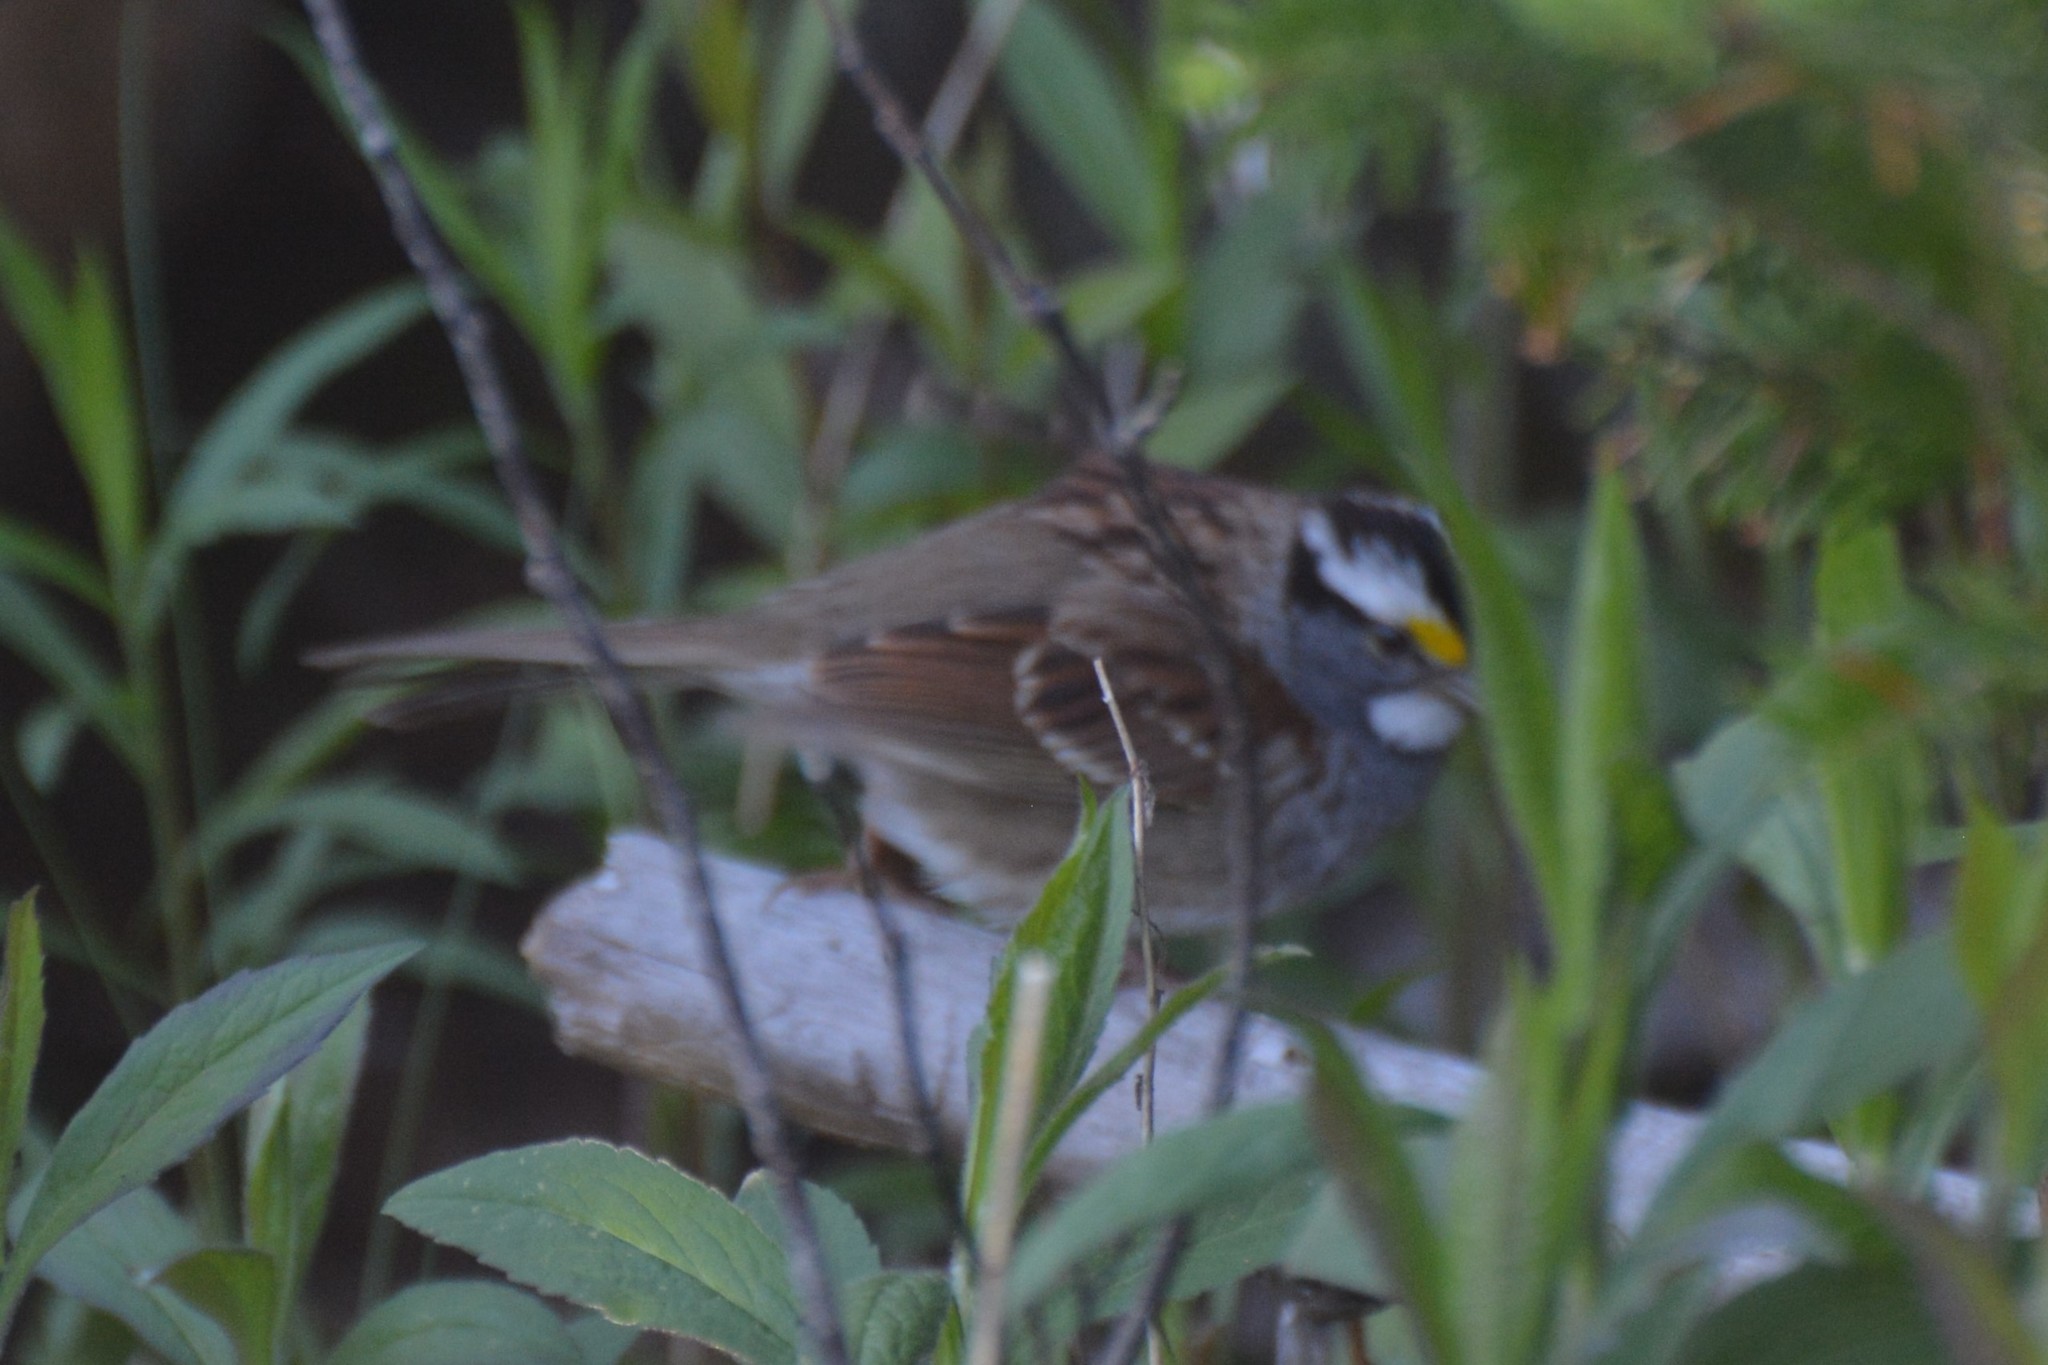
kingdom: Animalia
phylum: Chordata
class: Aves
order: Passeriformes
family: Passerellidae
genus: Zonotrichia
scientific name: Zonotrichia albicollis
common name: White-throated sparrow
